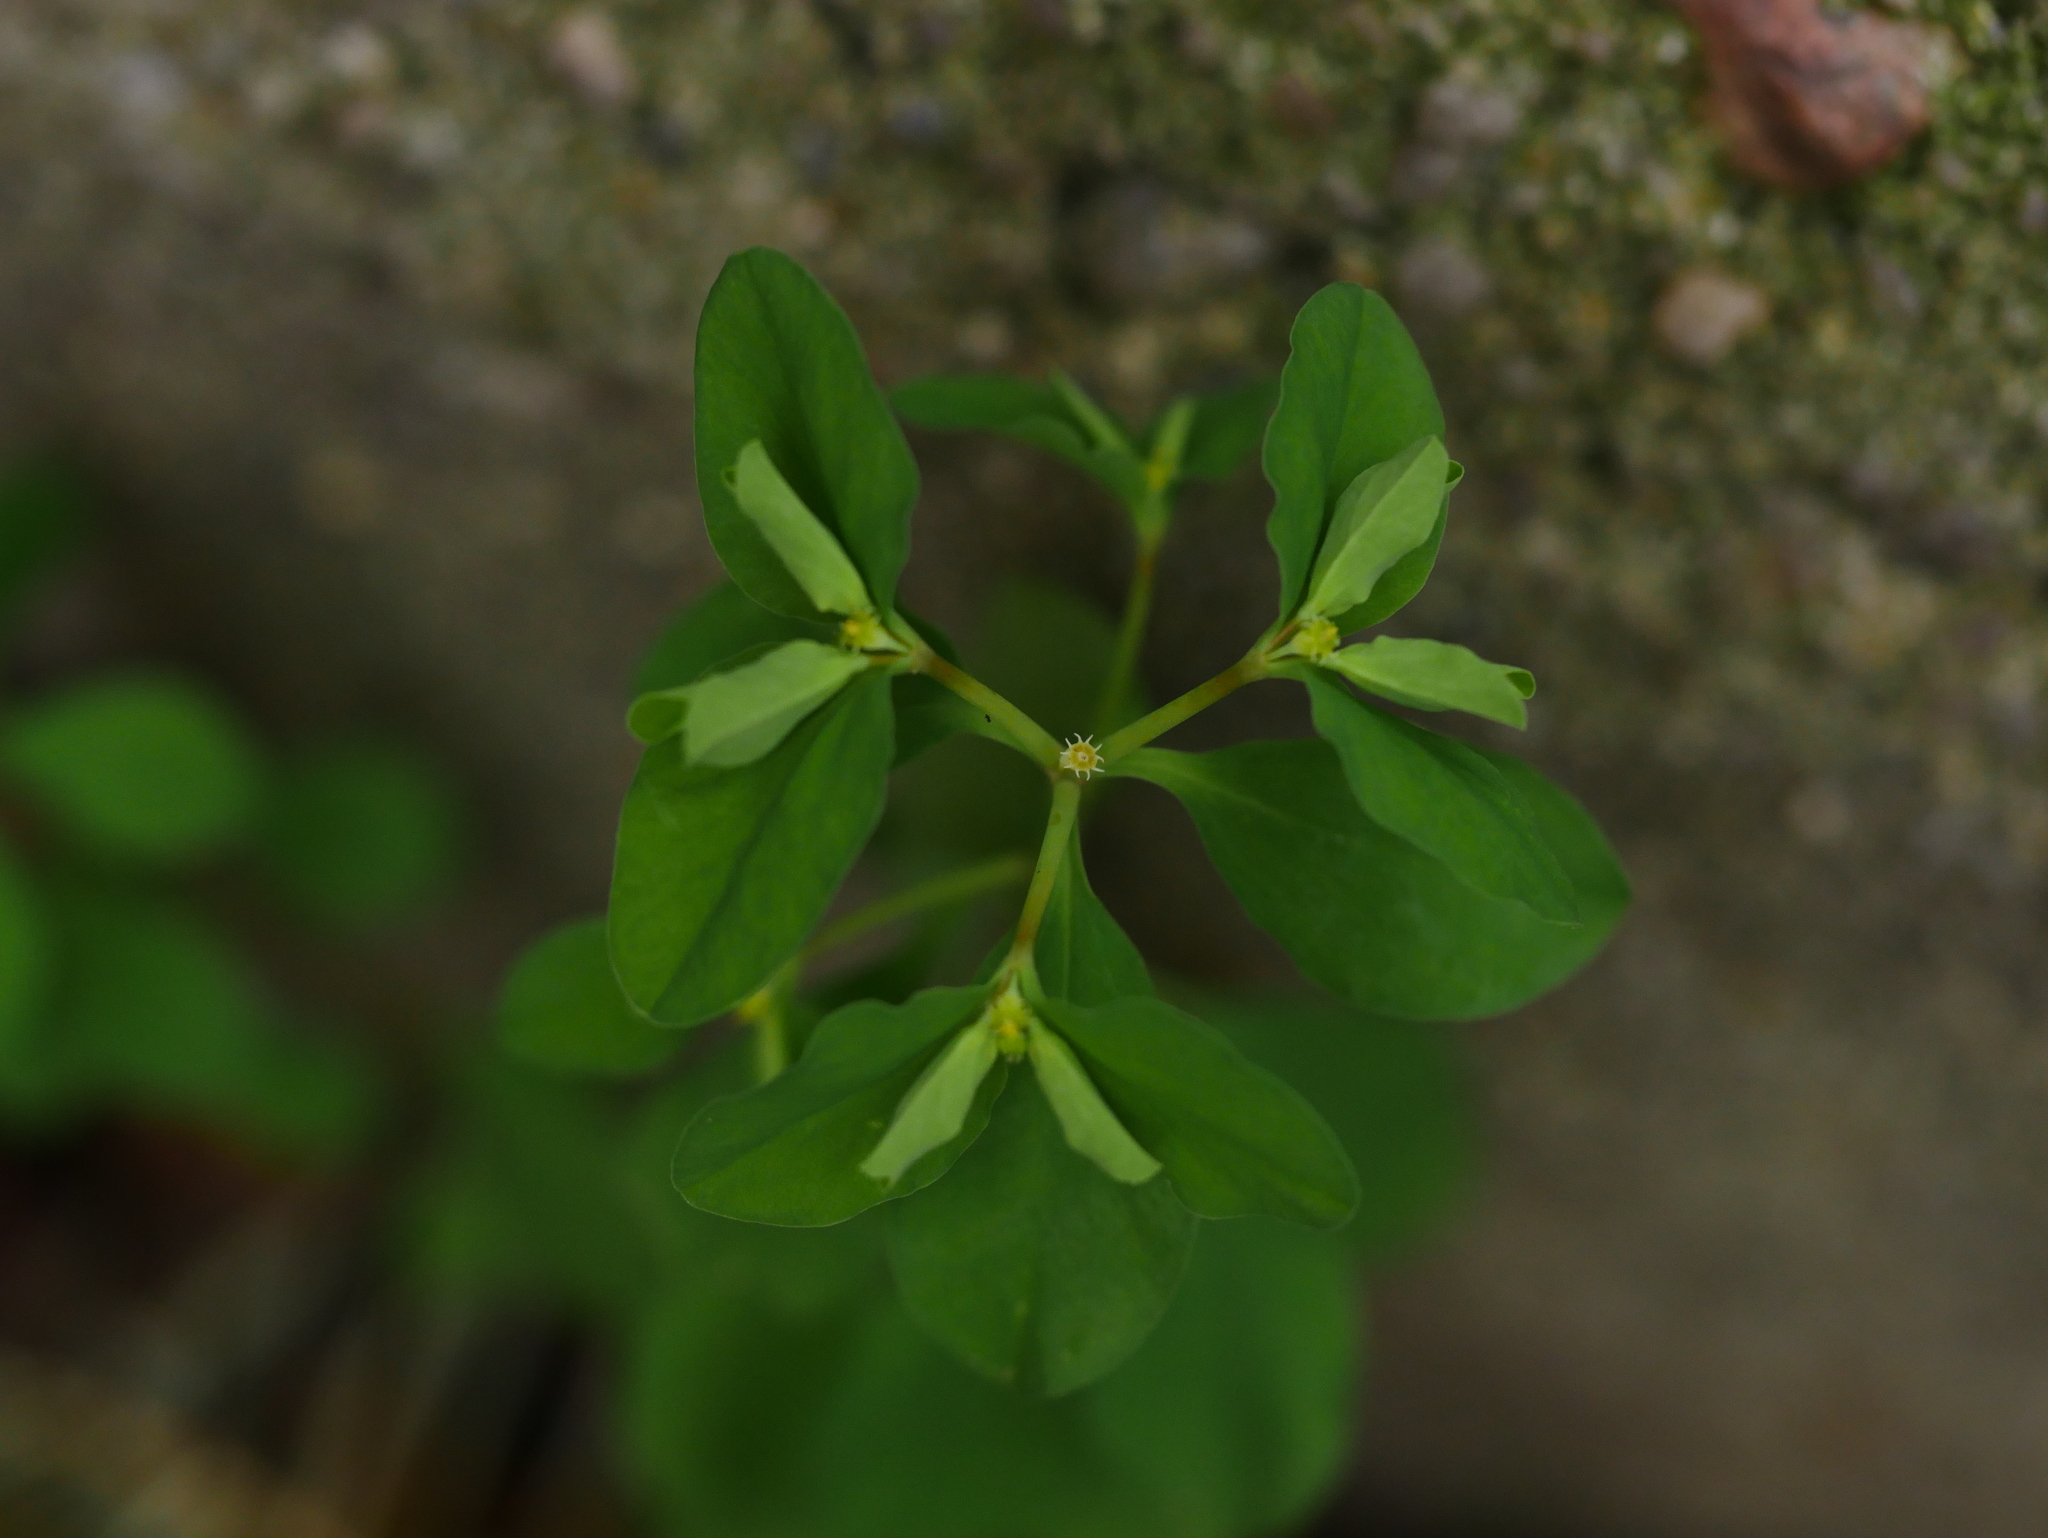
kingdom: Plantae
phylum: Tracheophyta
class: Magnoliopsida
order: Malpighiales
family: Euphorbiaceae
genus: Euphorbia
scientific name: Euphorbia peplus
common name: Petty spurge
